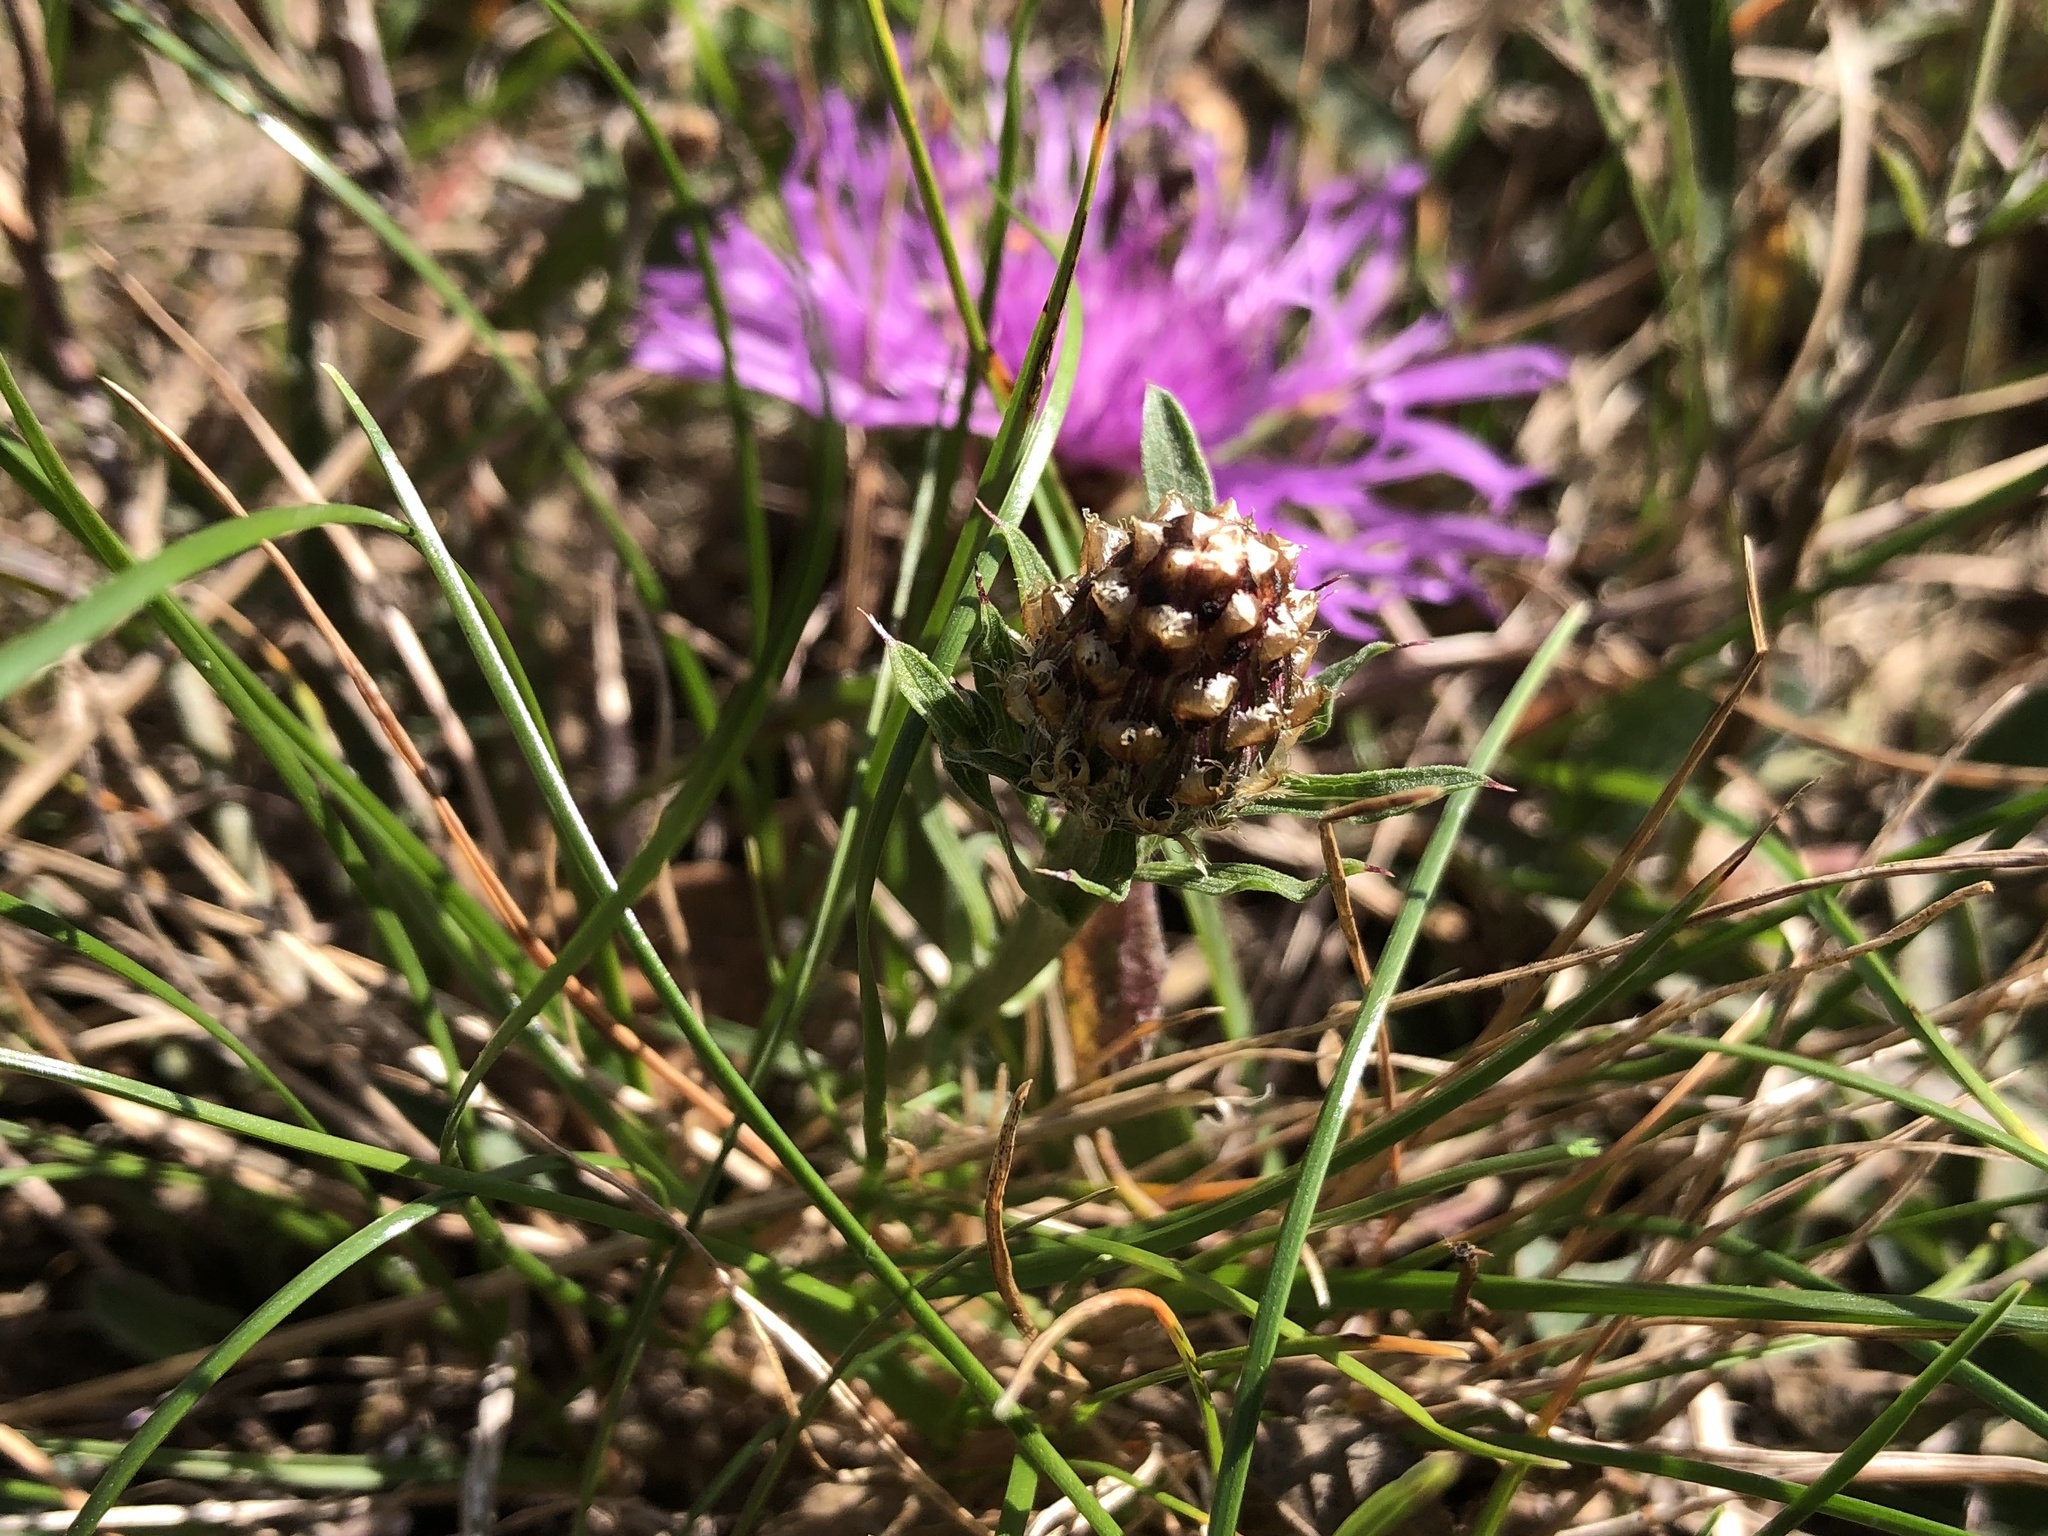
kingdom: Plantae
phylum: Tracheophyta
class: Magnoliopsida
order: Asterales
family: Asteraceae
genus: Centaurea
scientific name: Centaurea jacea
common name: Brown knapweed
